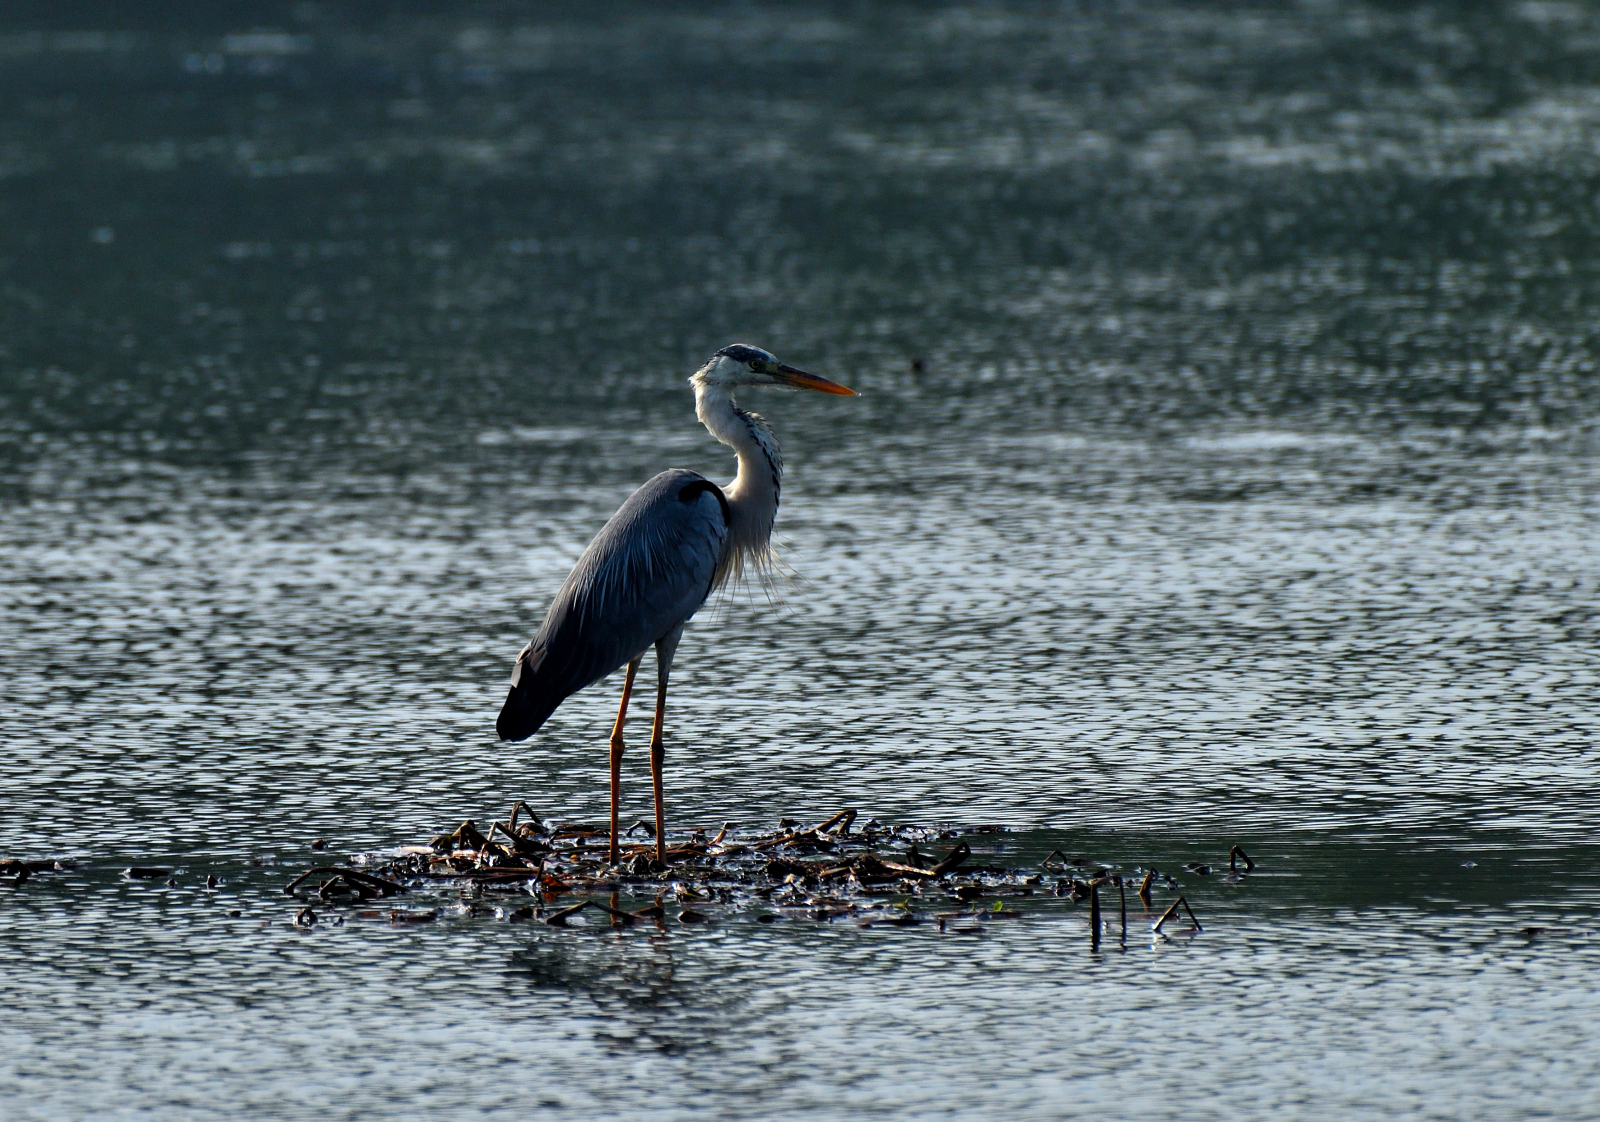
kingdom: Animalia
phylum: Chordata
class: Aves
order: Pelecaniformes
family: Ardeidae
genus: Ardea
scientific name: Ardea cinerea
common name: Grey heron
